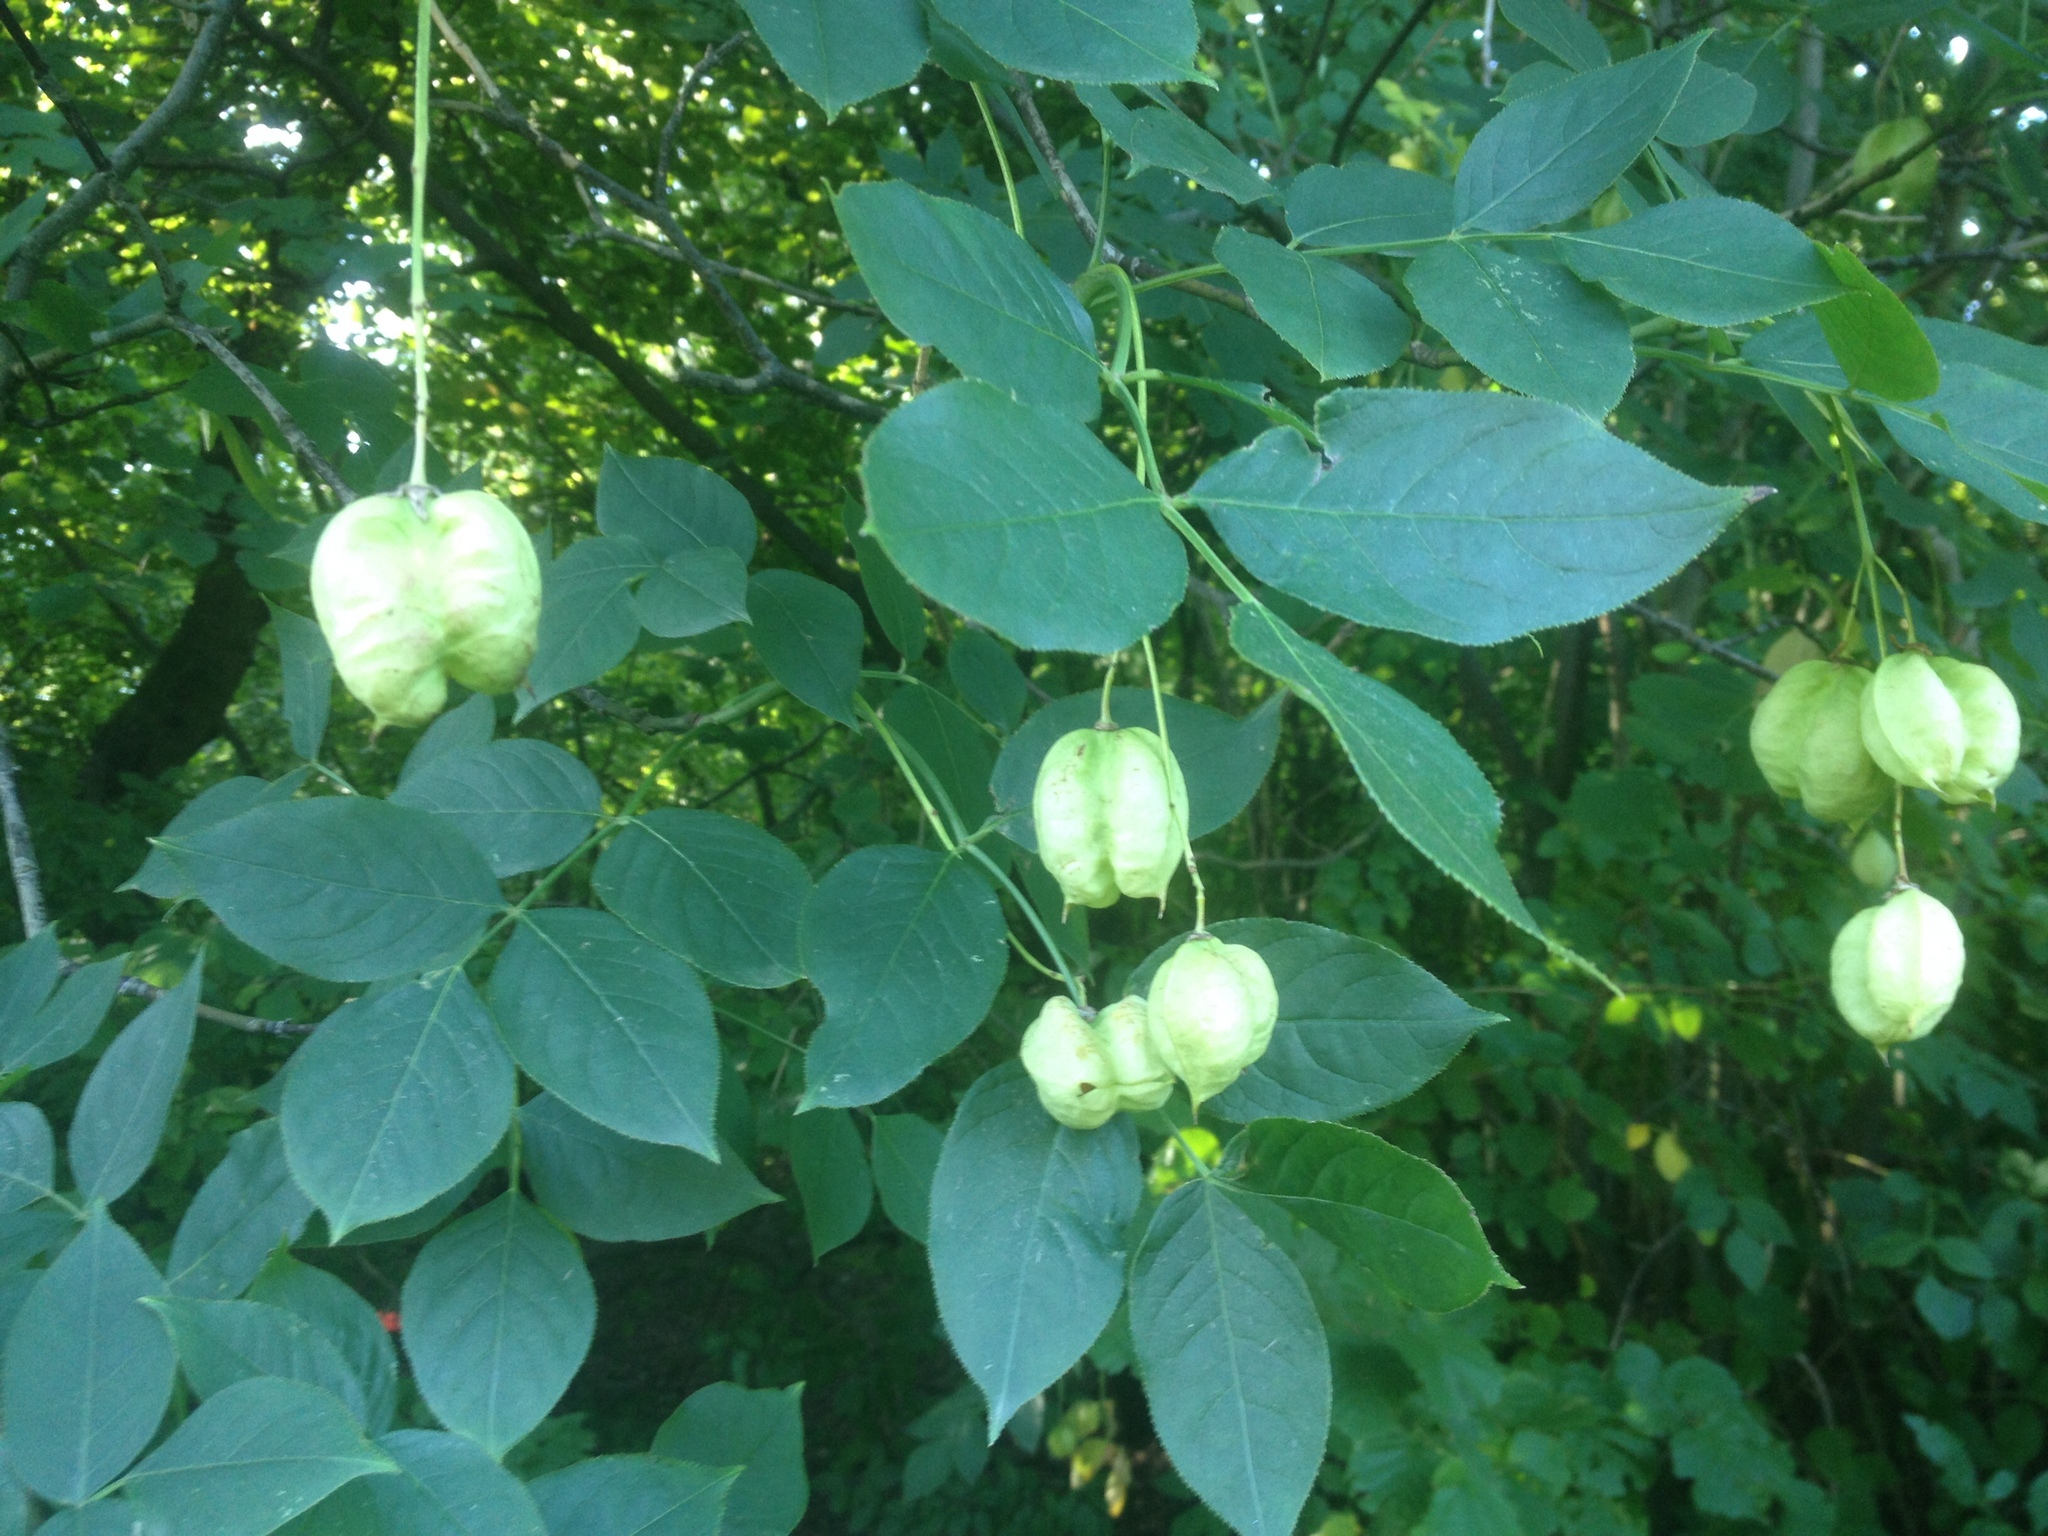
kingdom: Plantae
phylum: Tracheophyta
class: Magnoliopsida
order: Crossosomatales
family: Staphyleaceae
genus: Staphylea
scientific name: Staphylea pinnata
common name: Bladdernut
